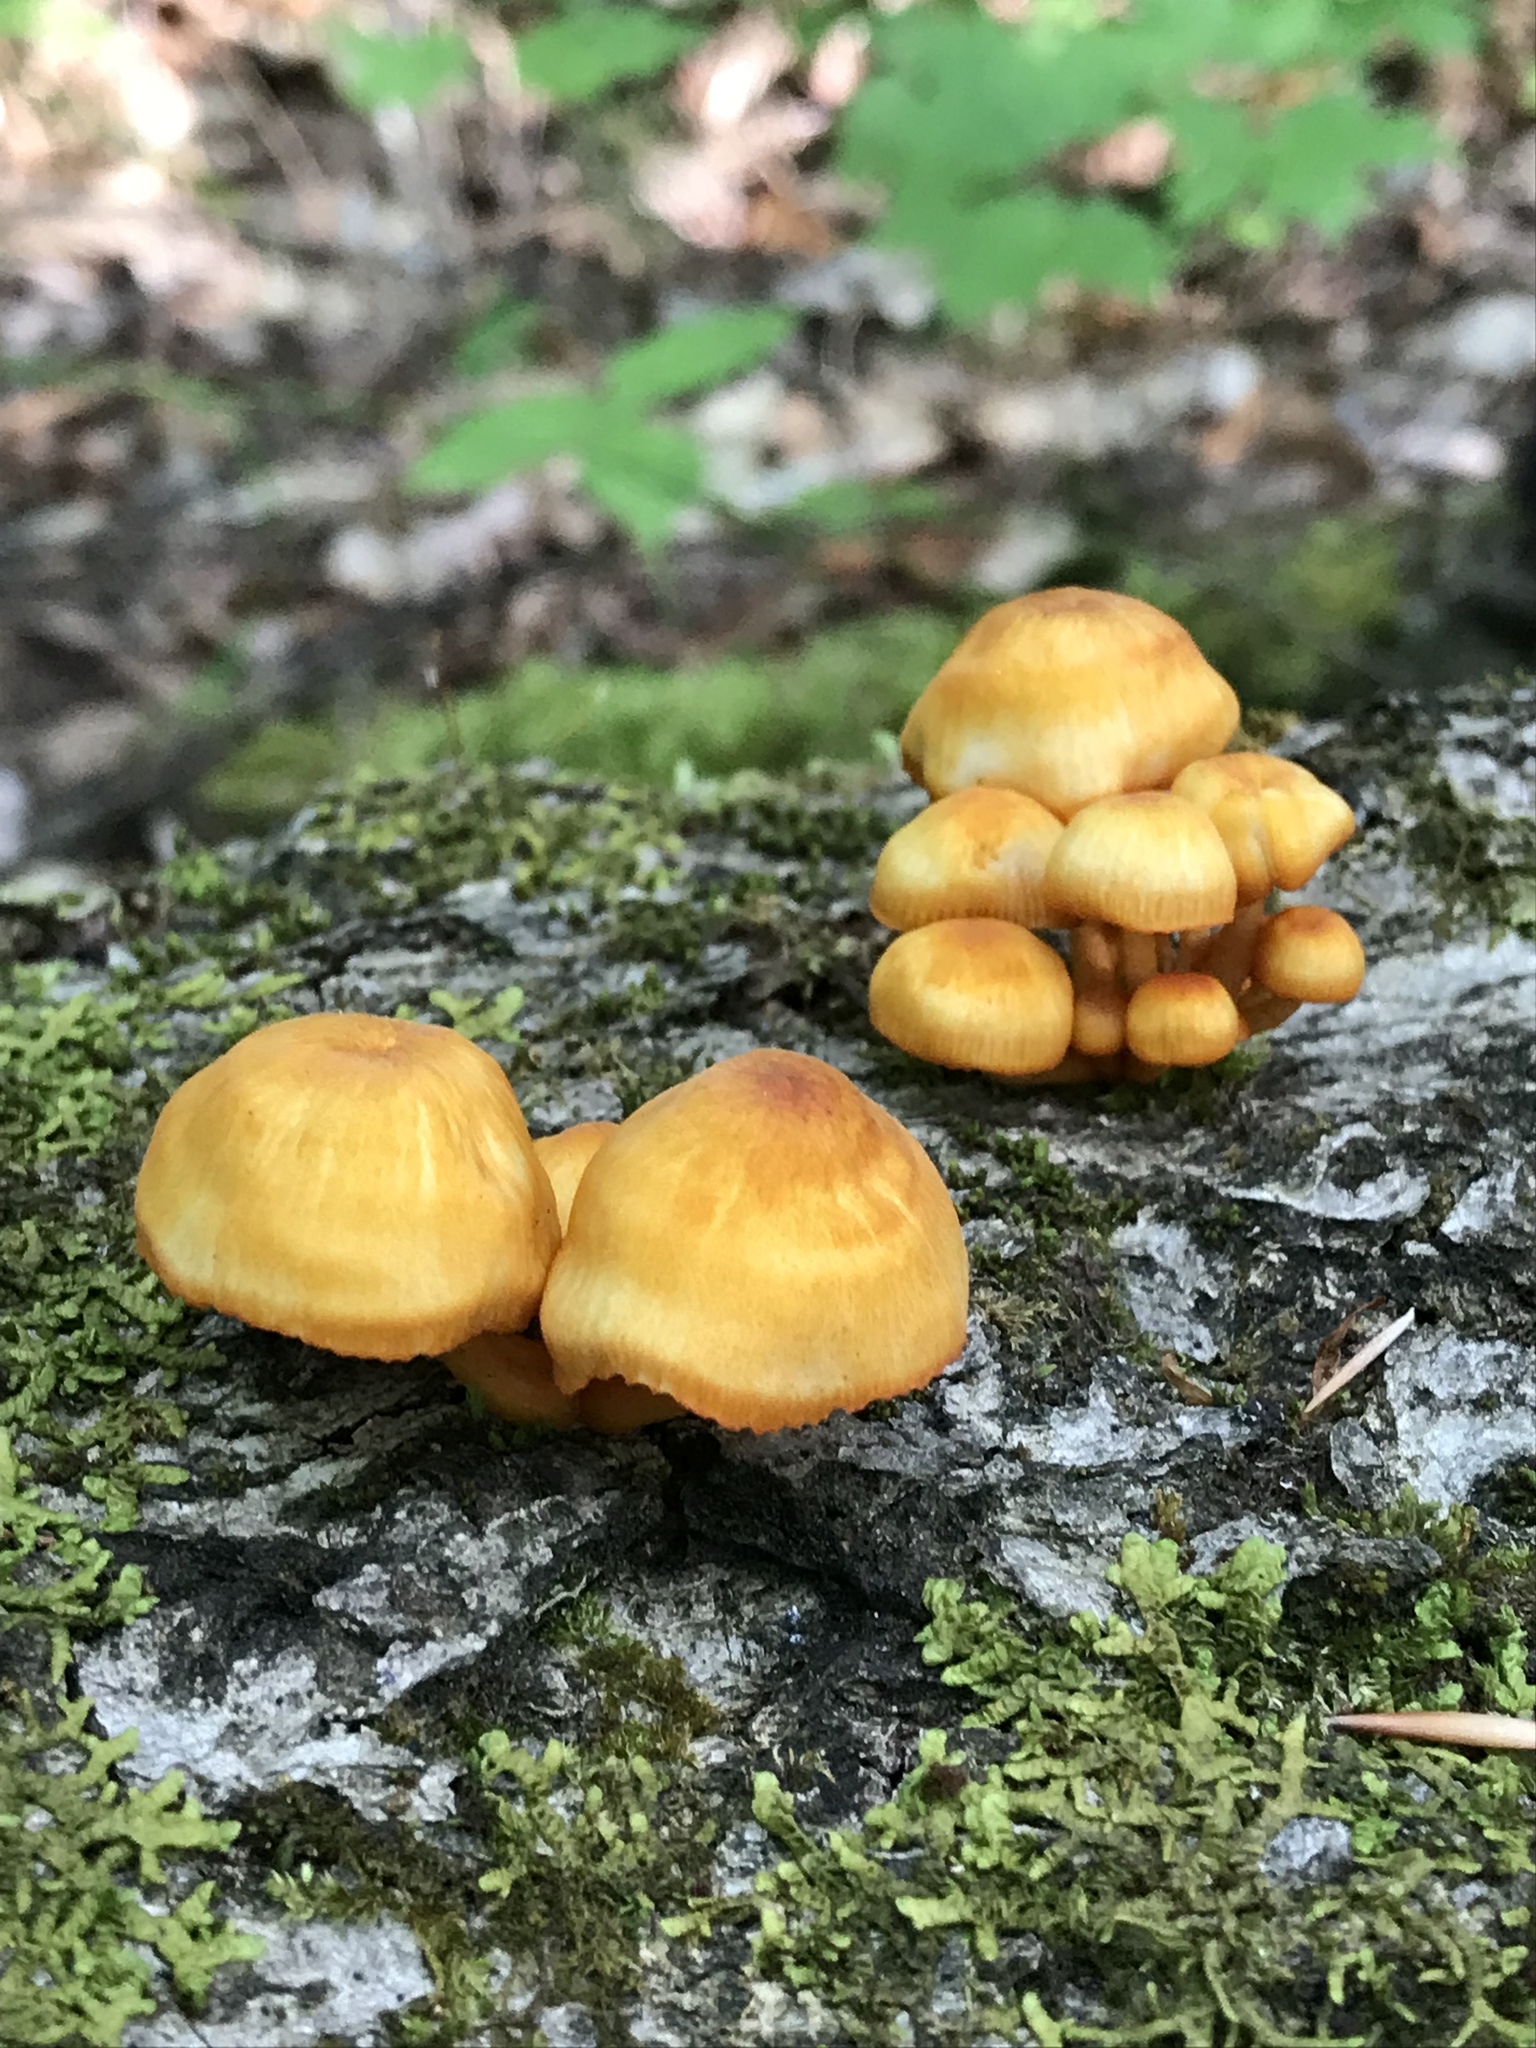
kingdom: Fungi
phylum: Basidiomycota
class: Agaricomycetes
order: Agaricales
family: Mycenaceae
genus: Mycena
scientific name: Mycena leaiana
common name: Orange mycena
